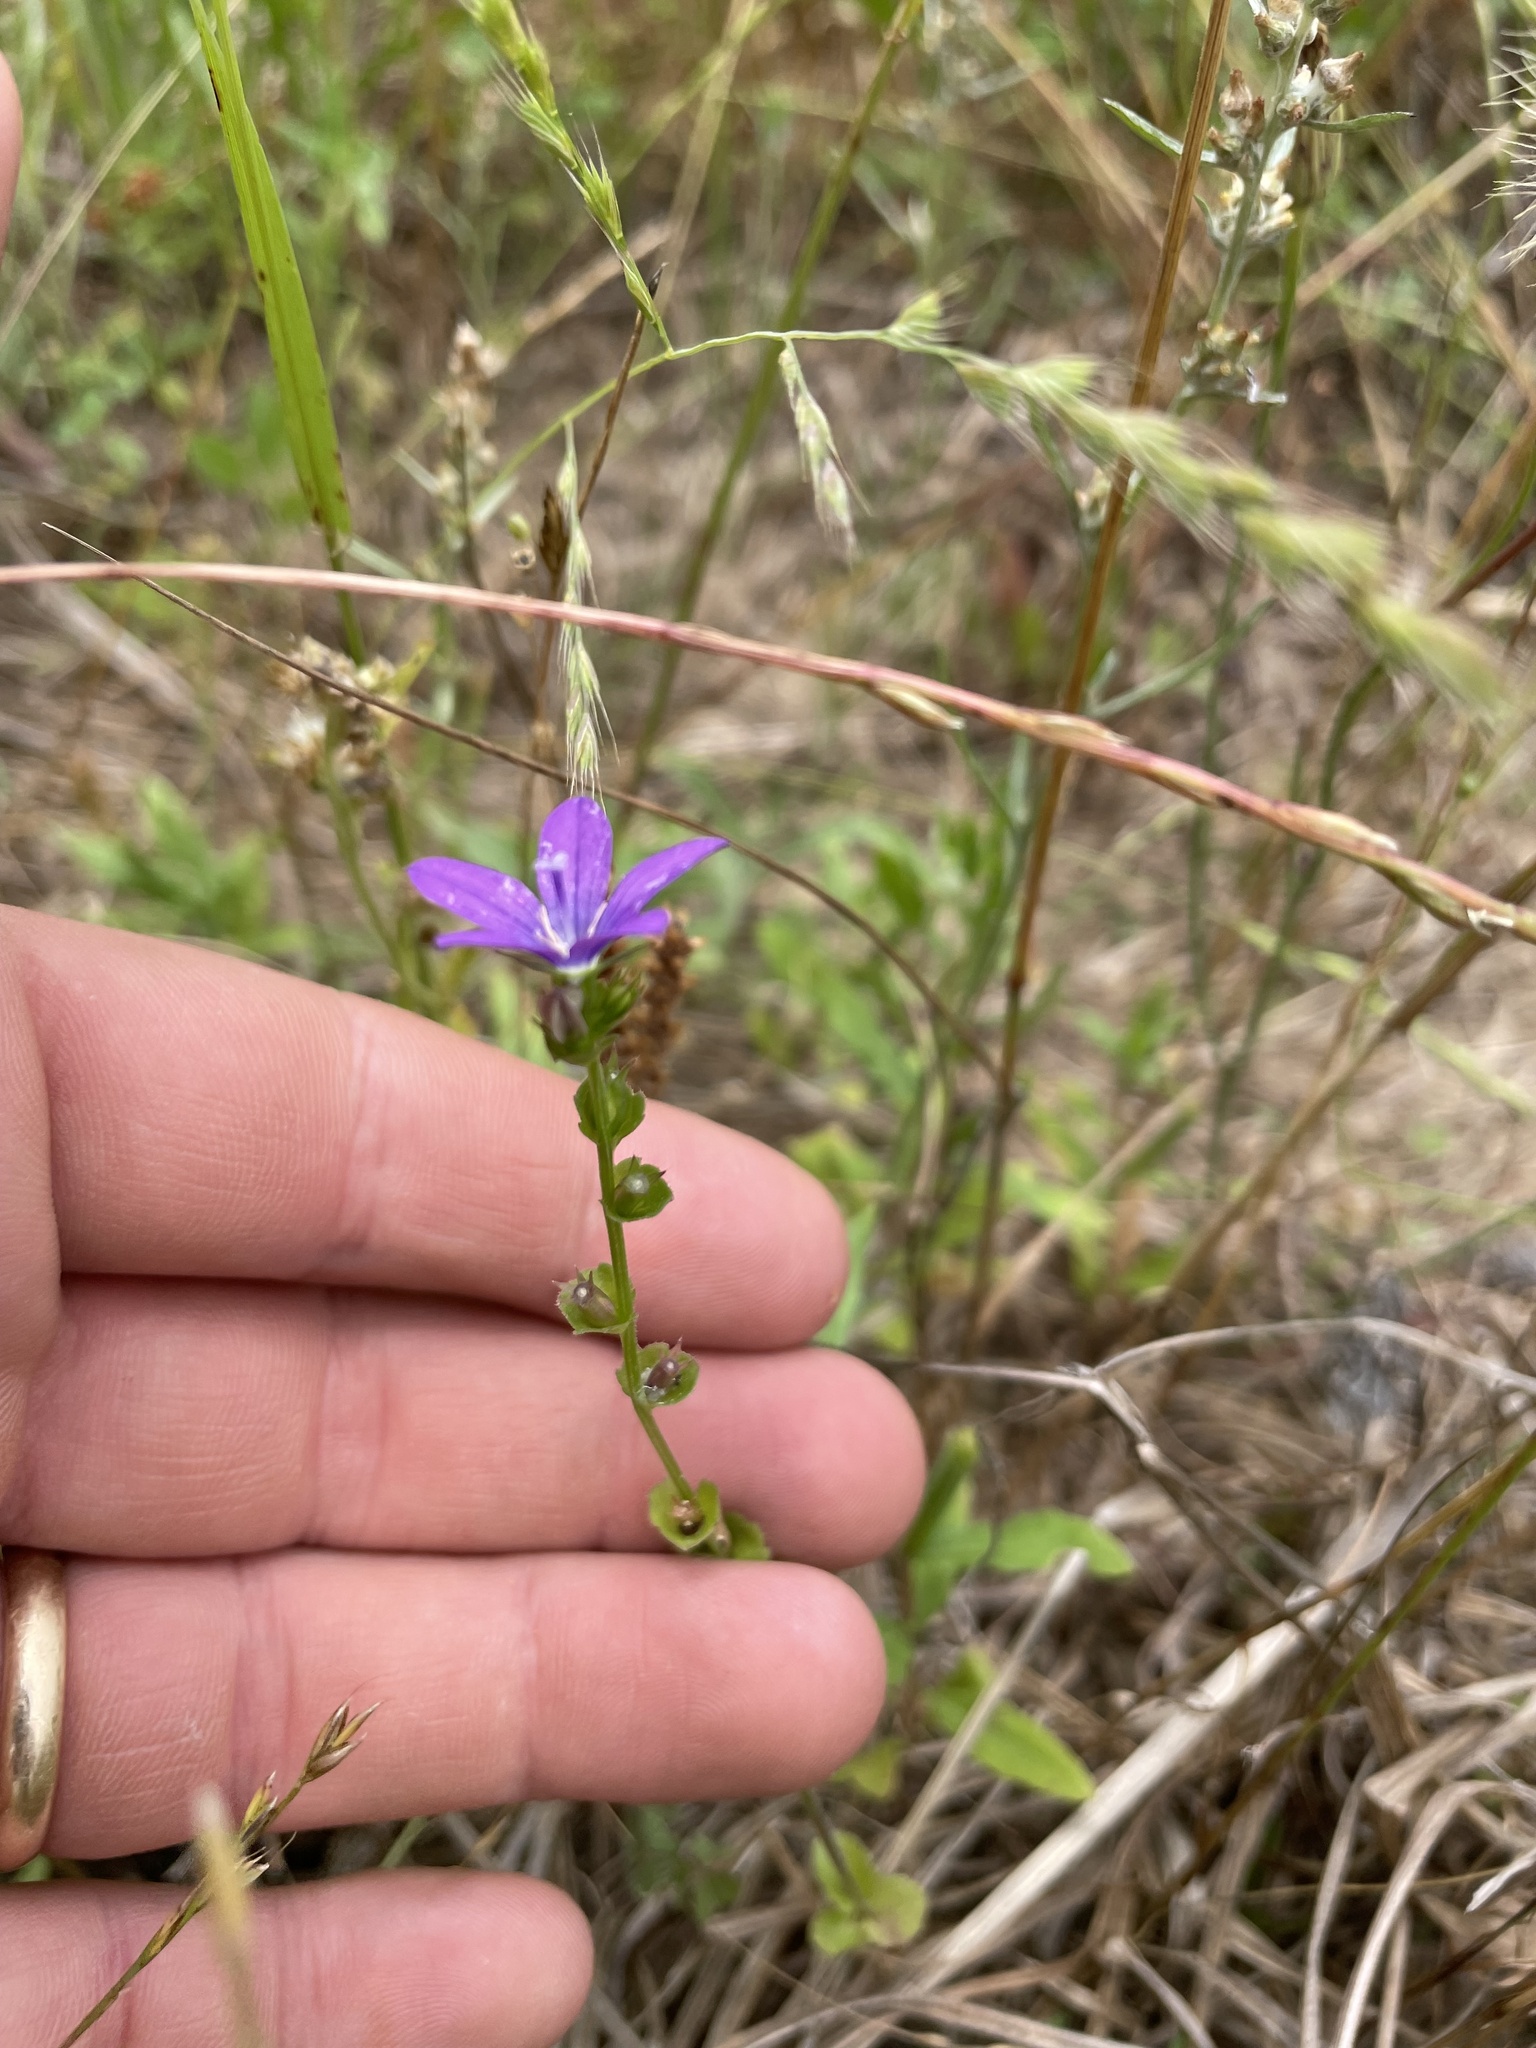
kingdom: Plantae
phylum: Tracheophyta
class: Magnoliopsida
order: Asterales
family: Campanulaceae
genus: Triodanis
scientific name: Triodanis perfoliata
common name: Clasping venus' looking-glass
